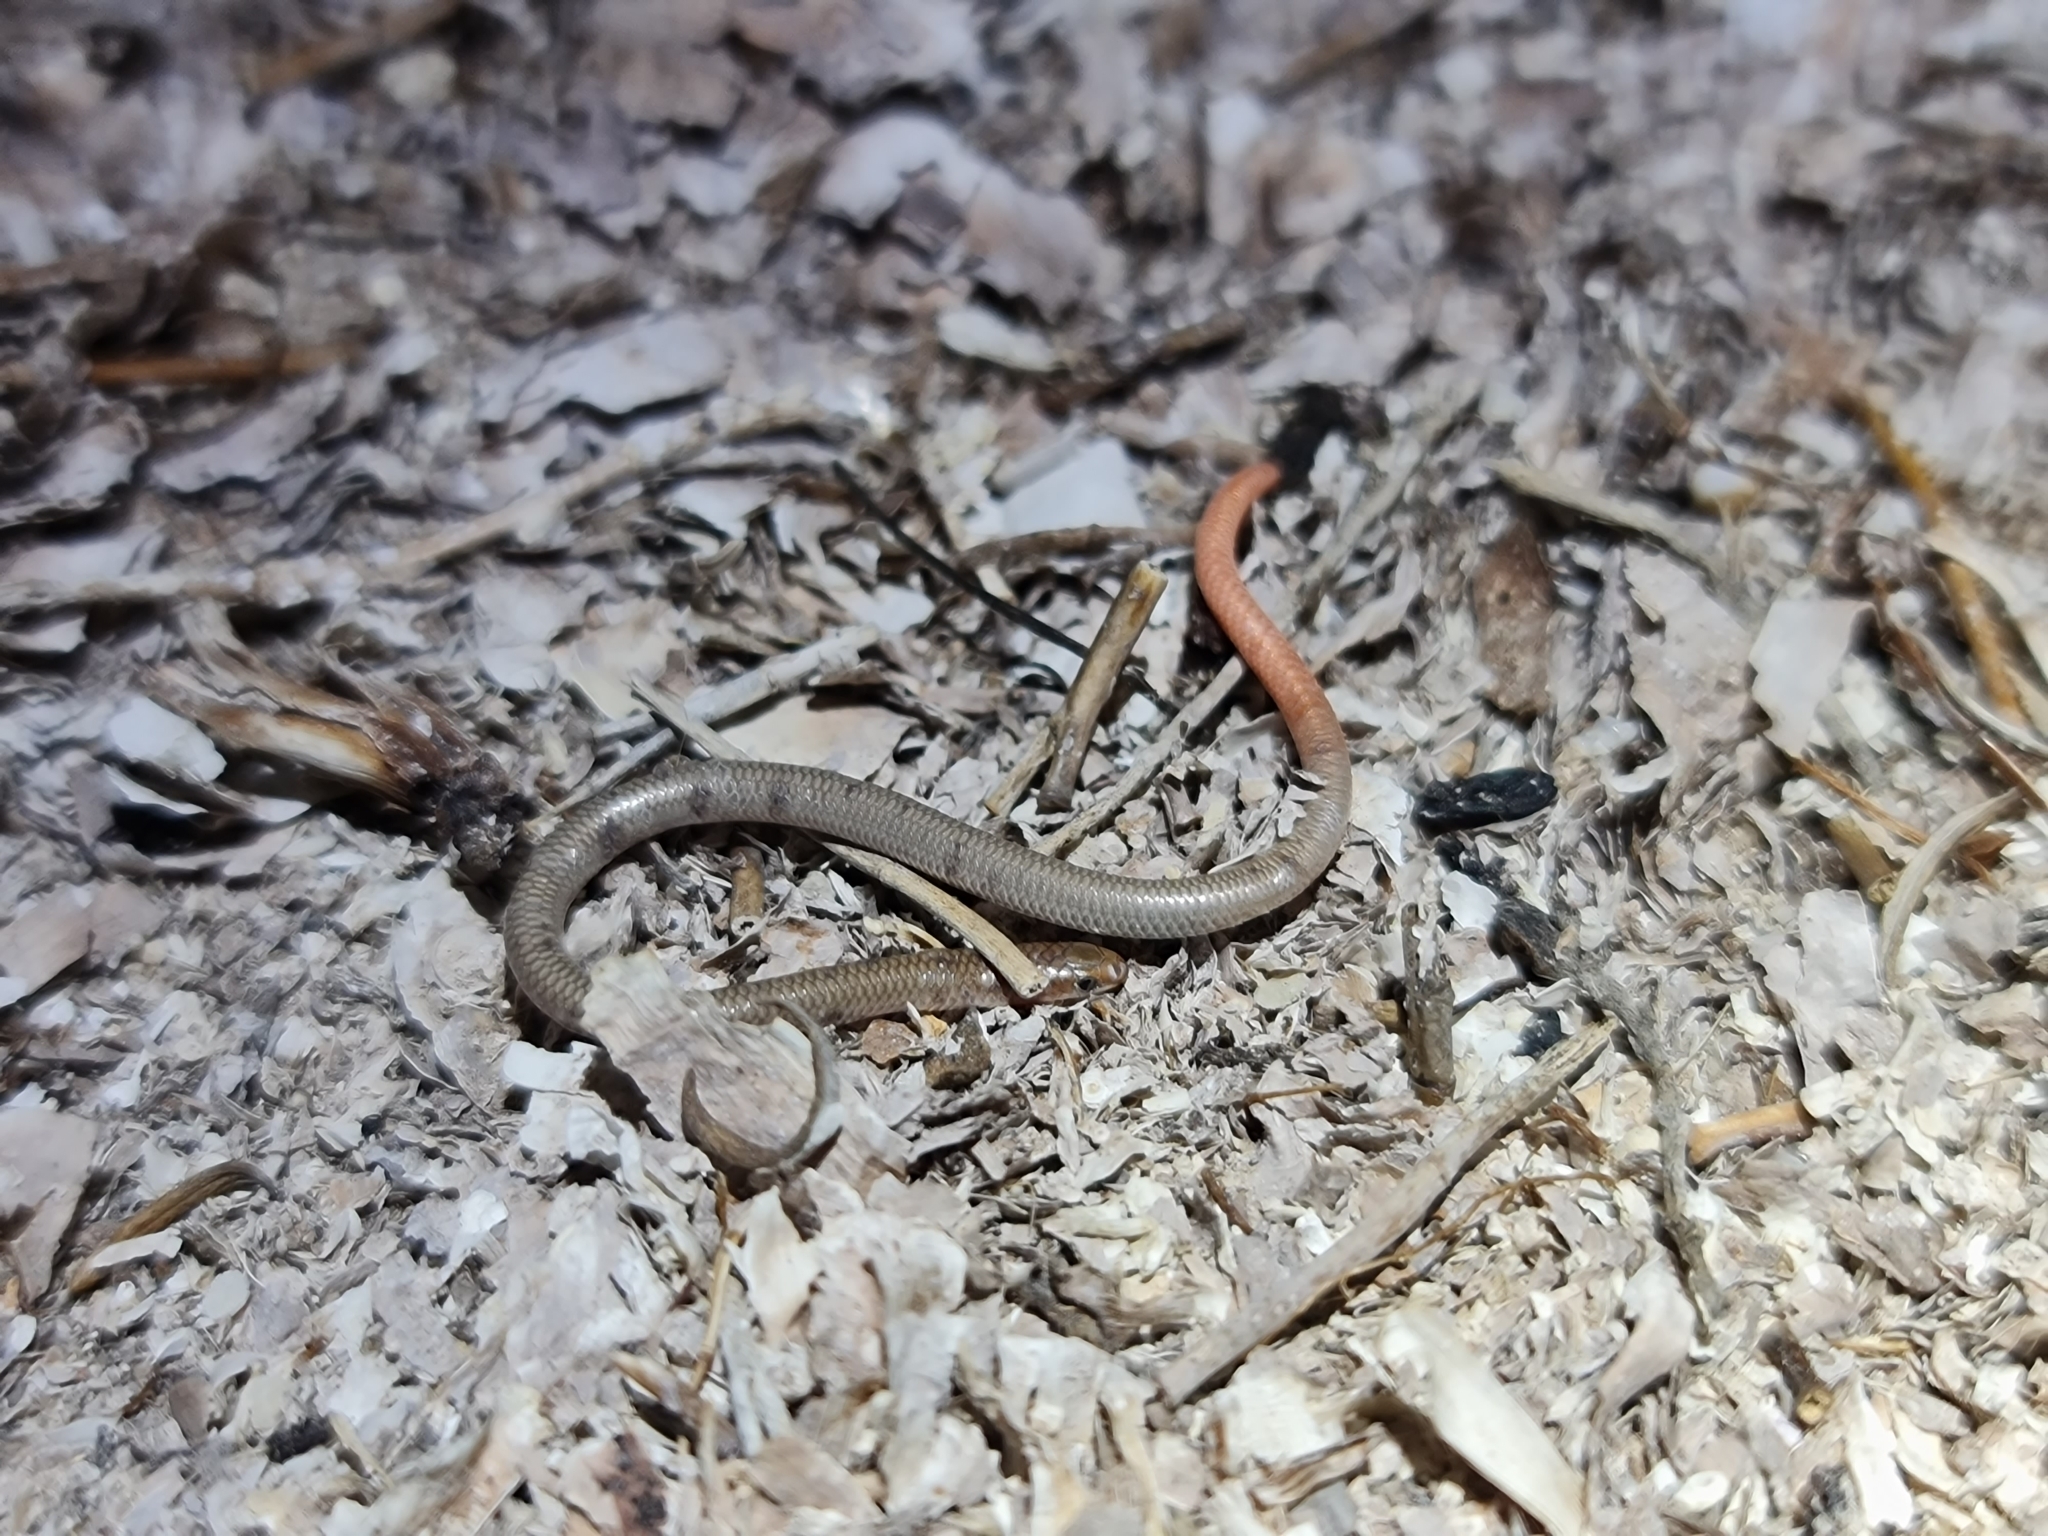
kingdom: Animalia
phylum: Chordata
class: Squamata
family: Pygopodidae
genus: Aprasia
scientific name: Aprasia inaurita
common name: Mallee worm-lizard
